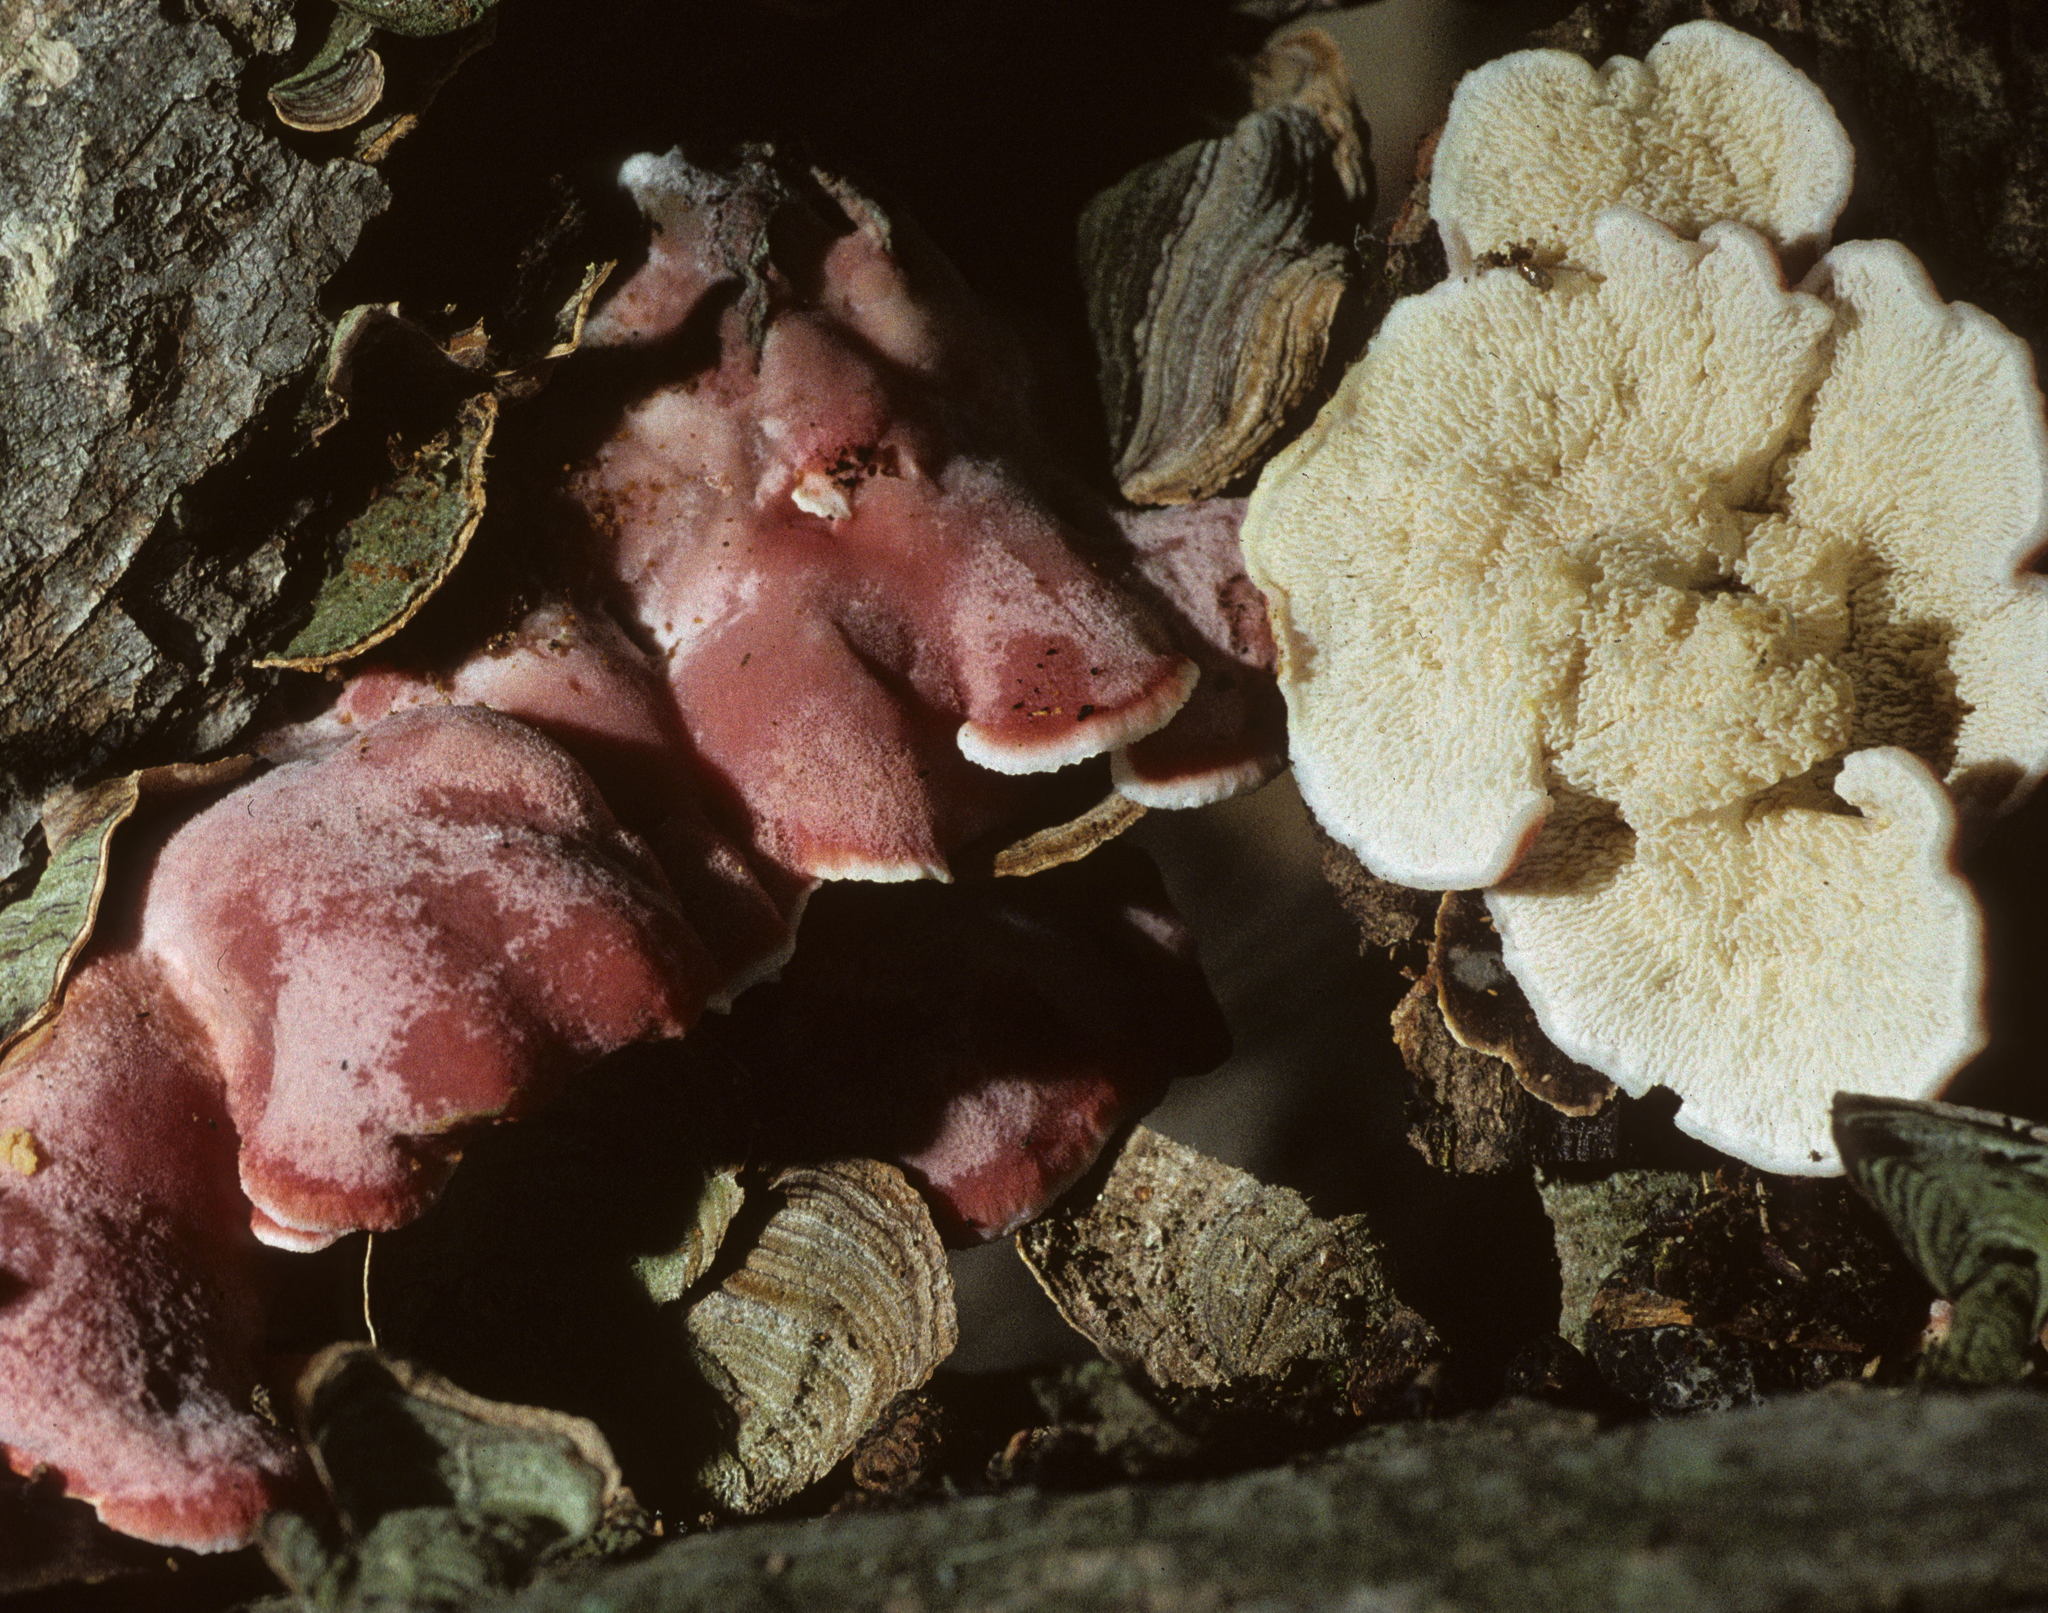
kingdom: Fungi
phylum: Basidiomycota
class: Agaricomycetes
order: Polyporales
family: Irpicaceae
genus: Byssomerulius
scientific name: Byssomerulius incarnatus
